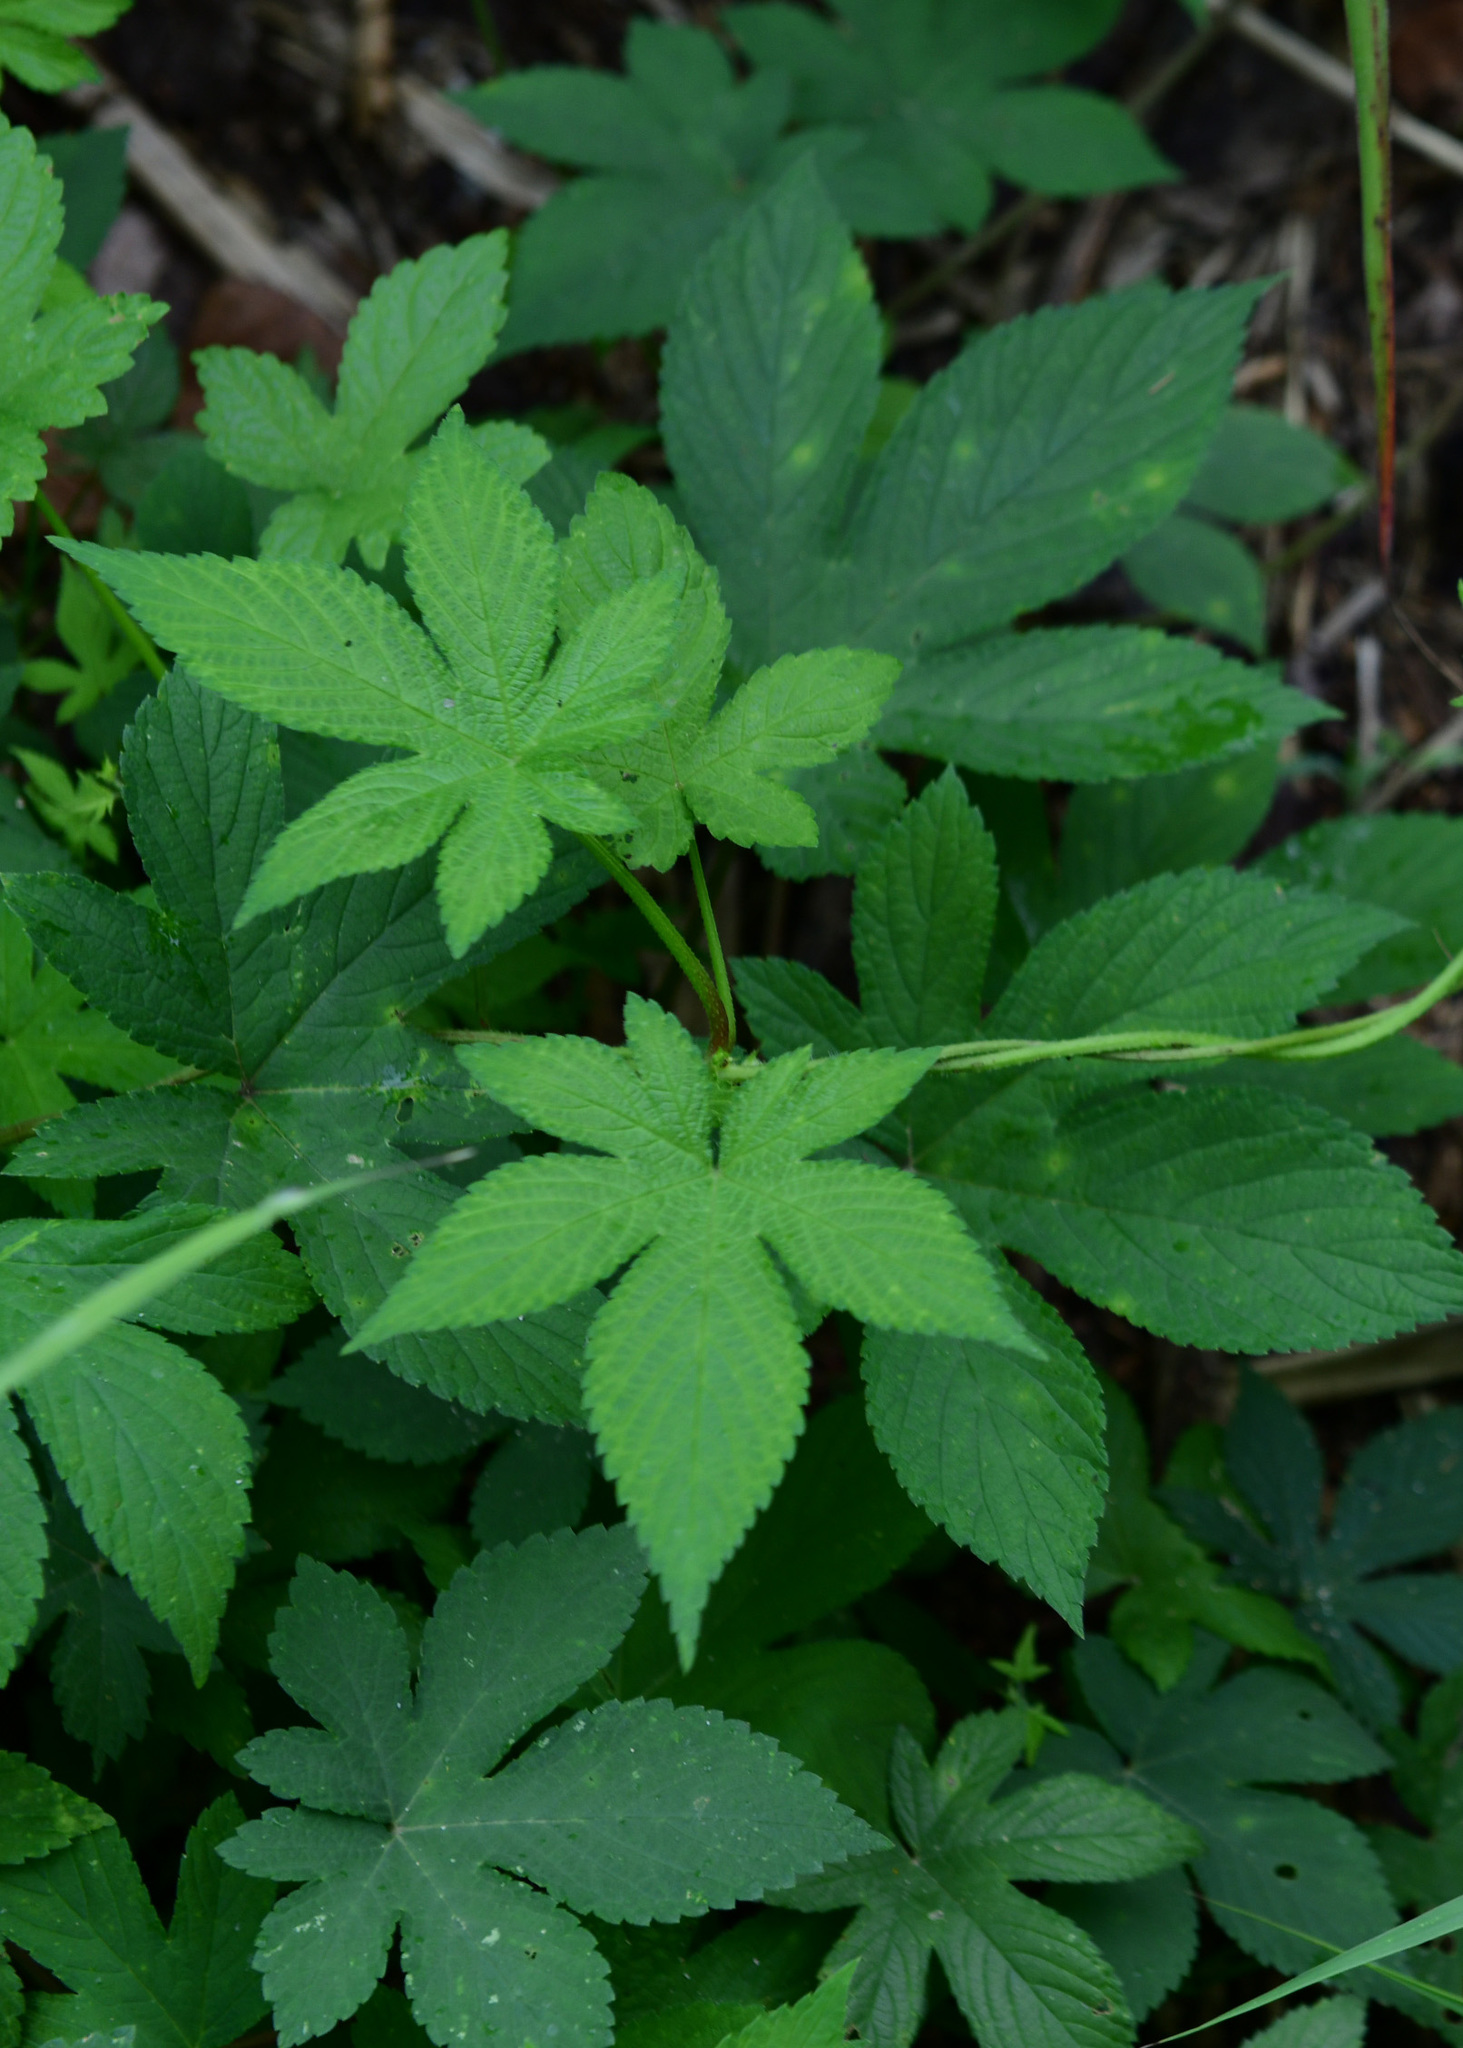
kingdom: Plantae
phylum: Tracheophyta
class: Magnoliopsida
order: Rosales
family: Cannabaceae
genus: Humulus
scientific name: Humulus scandens
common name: Japanese hop
